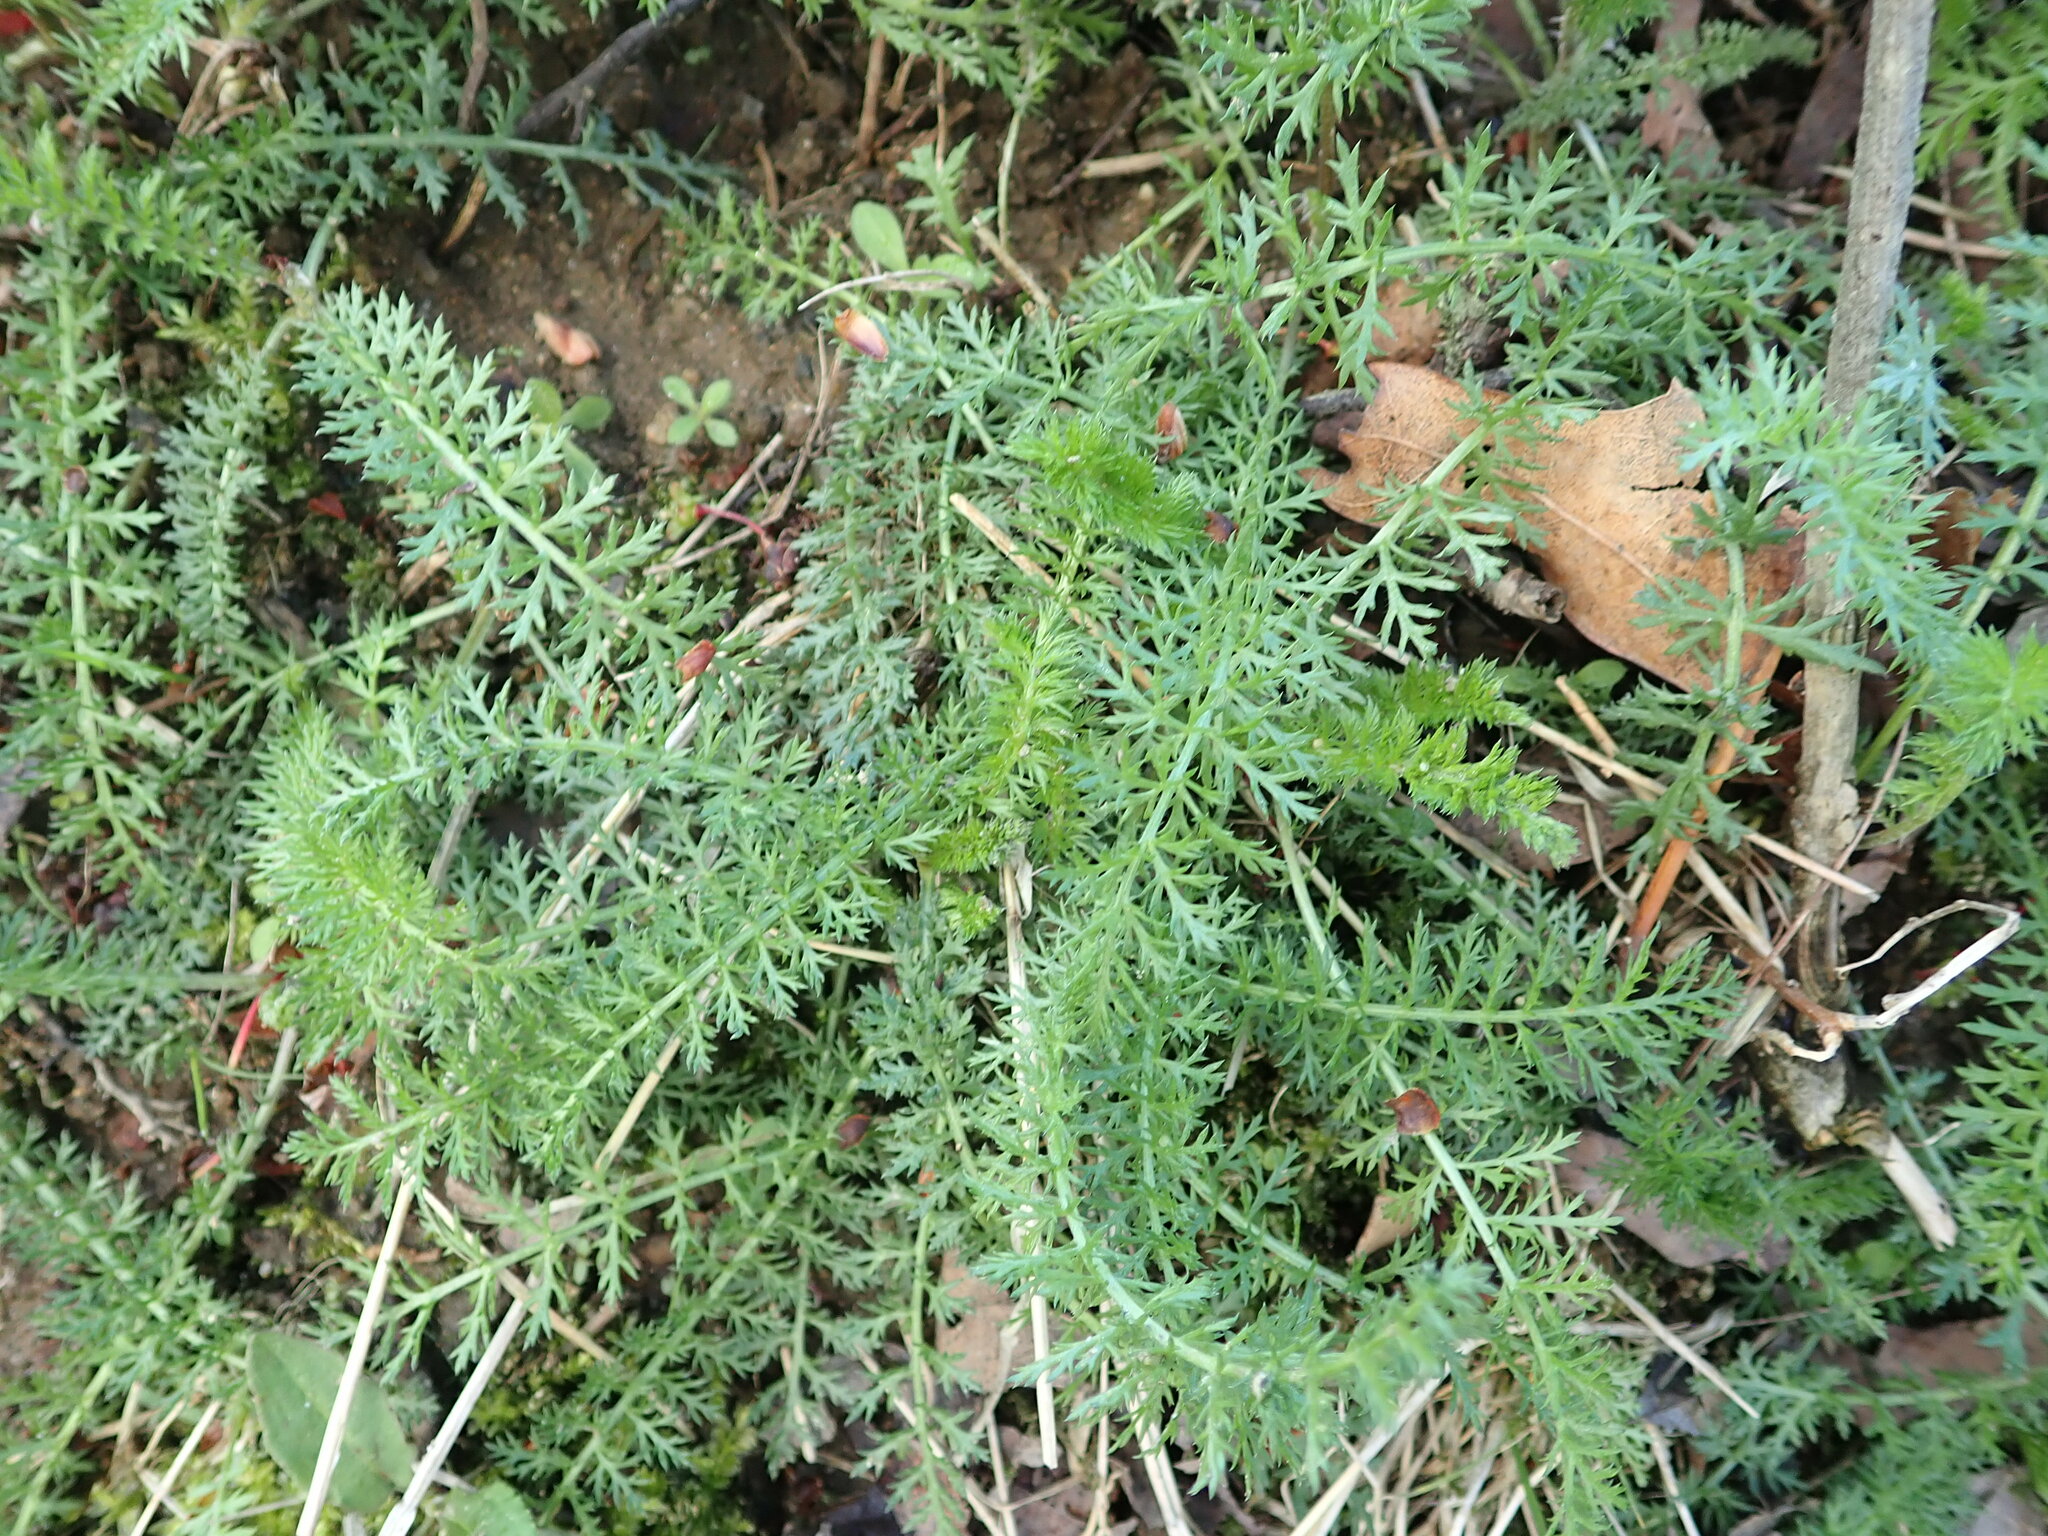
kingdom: Plantae
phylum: Tracheophyta
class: Magnoliopsida
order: Asterales
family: Asteraceae
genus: Achillea
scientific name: Achillea millefolium
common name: Yarrow
